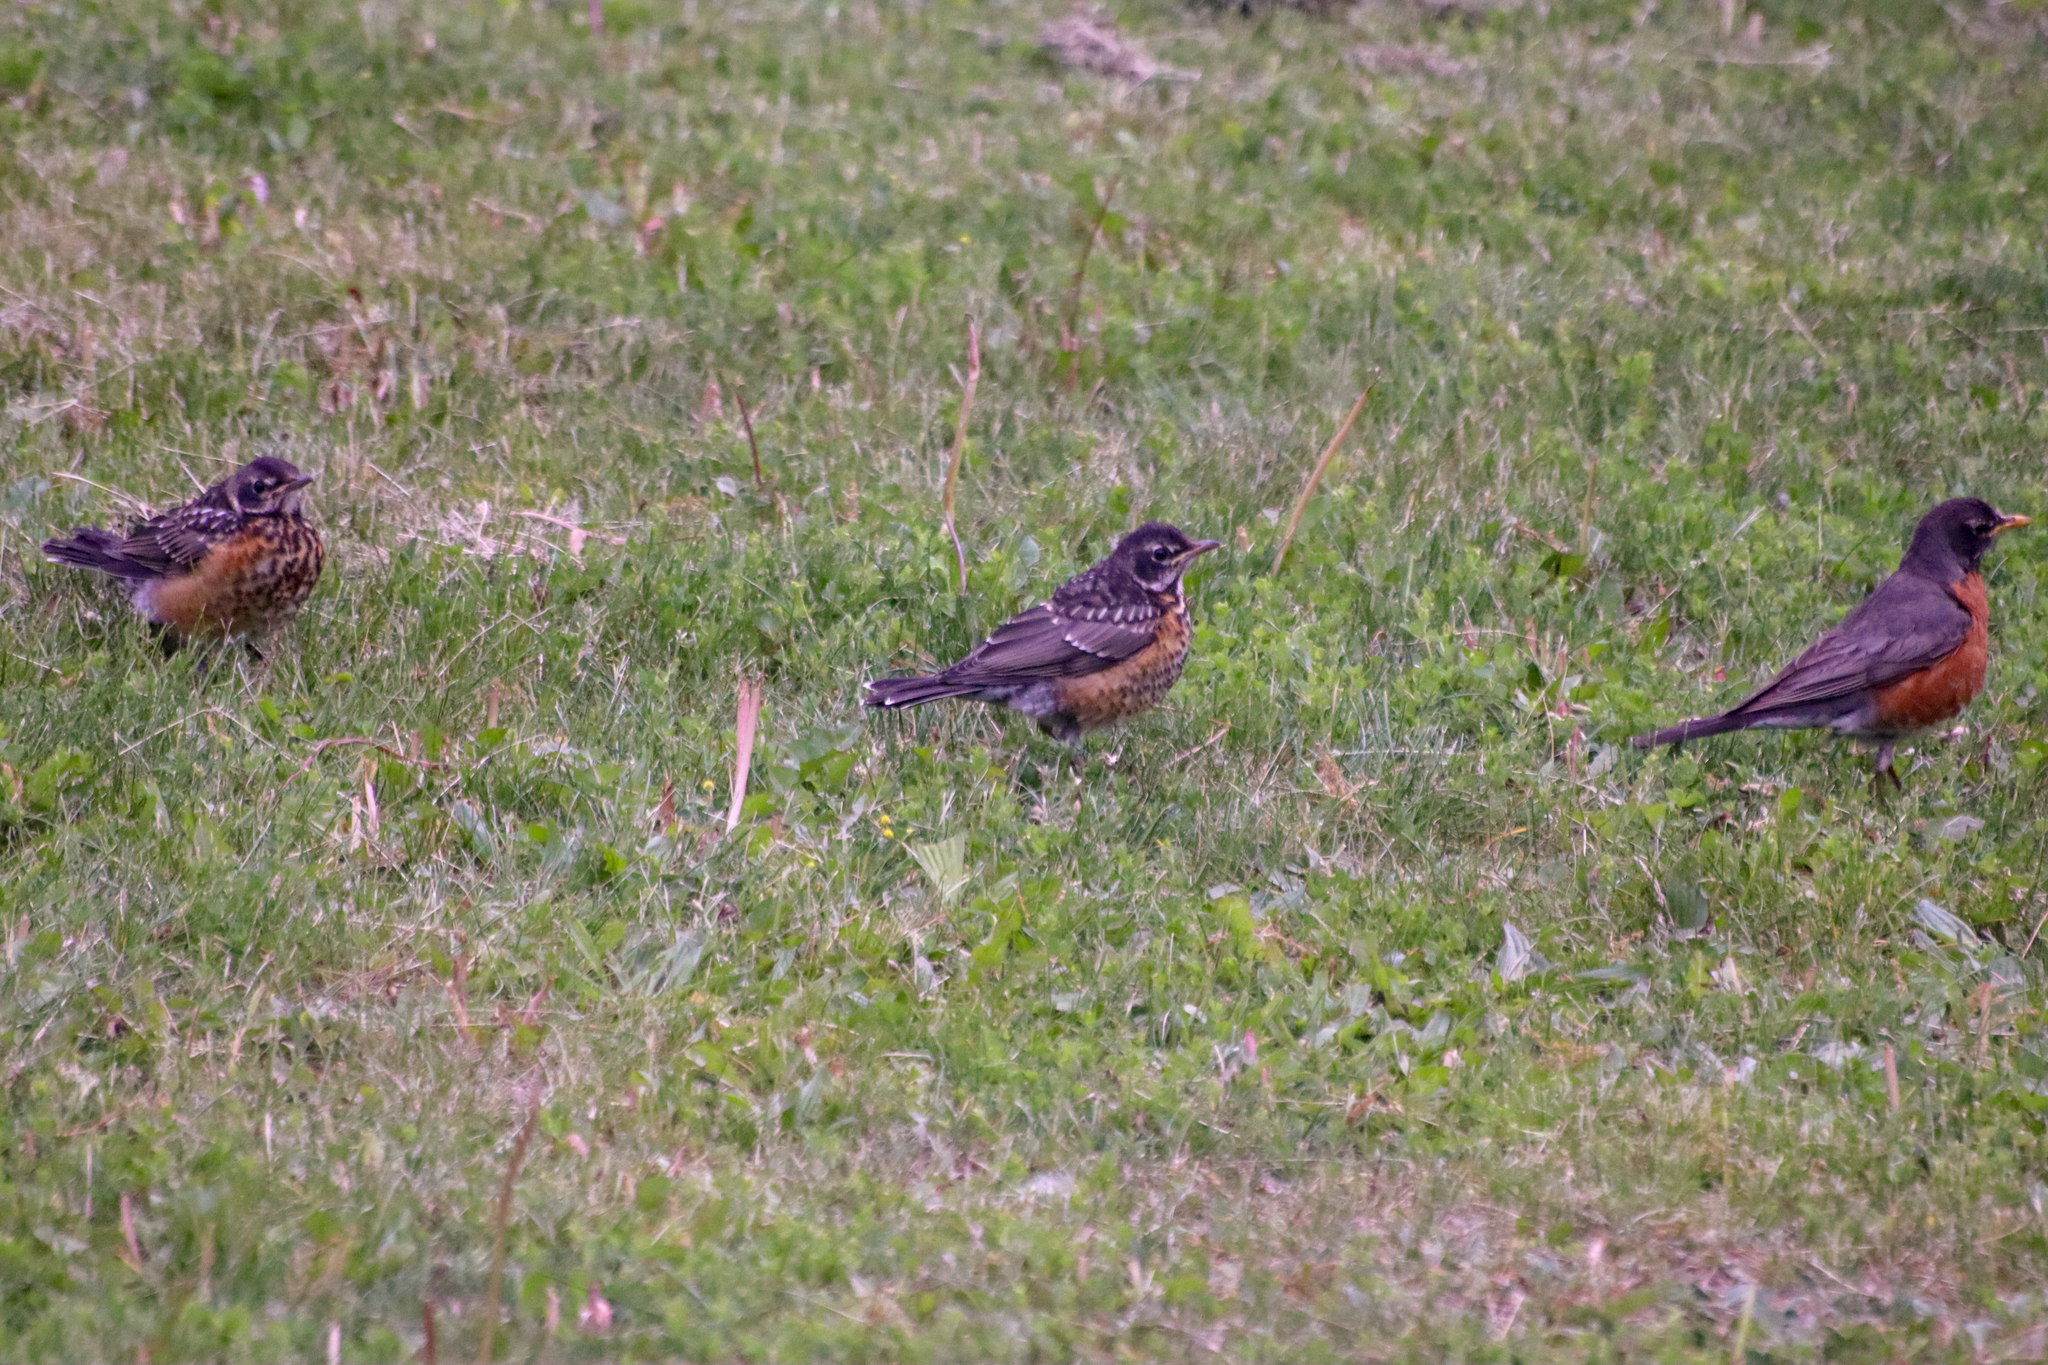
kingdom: Animalia
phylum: Chordata
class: Aves
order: Passeriformes
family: Turdidae
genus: Turdus
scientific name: Turdus migratorius
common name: American robin
